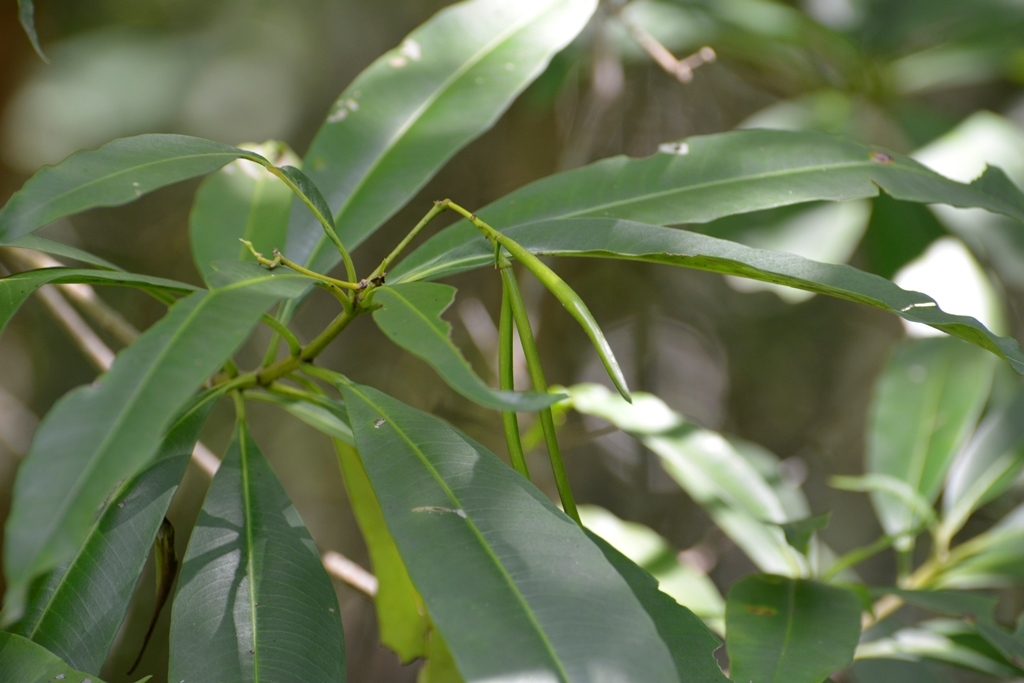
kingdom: Plantae
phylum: Tracheophyta
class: Magnoliopsida
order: Gentianales
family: Apocynaceae
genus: Tonduzia
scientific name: Tonduzia longifolia
